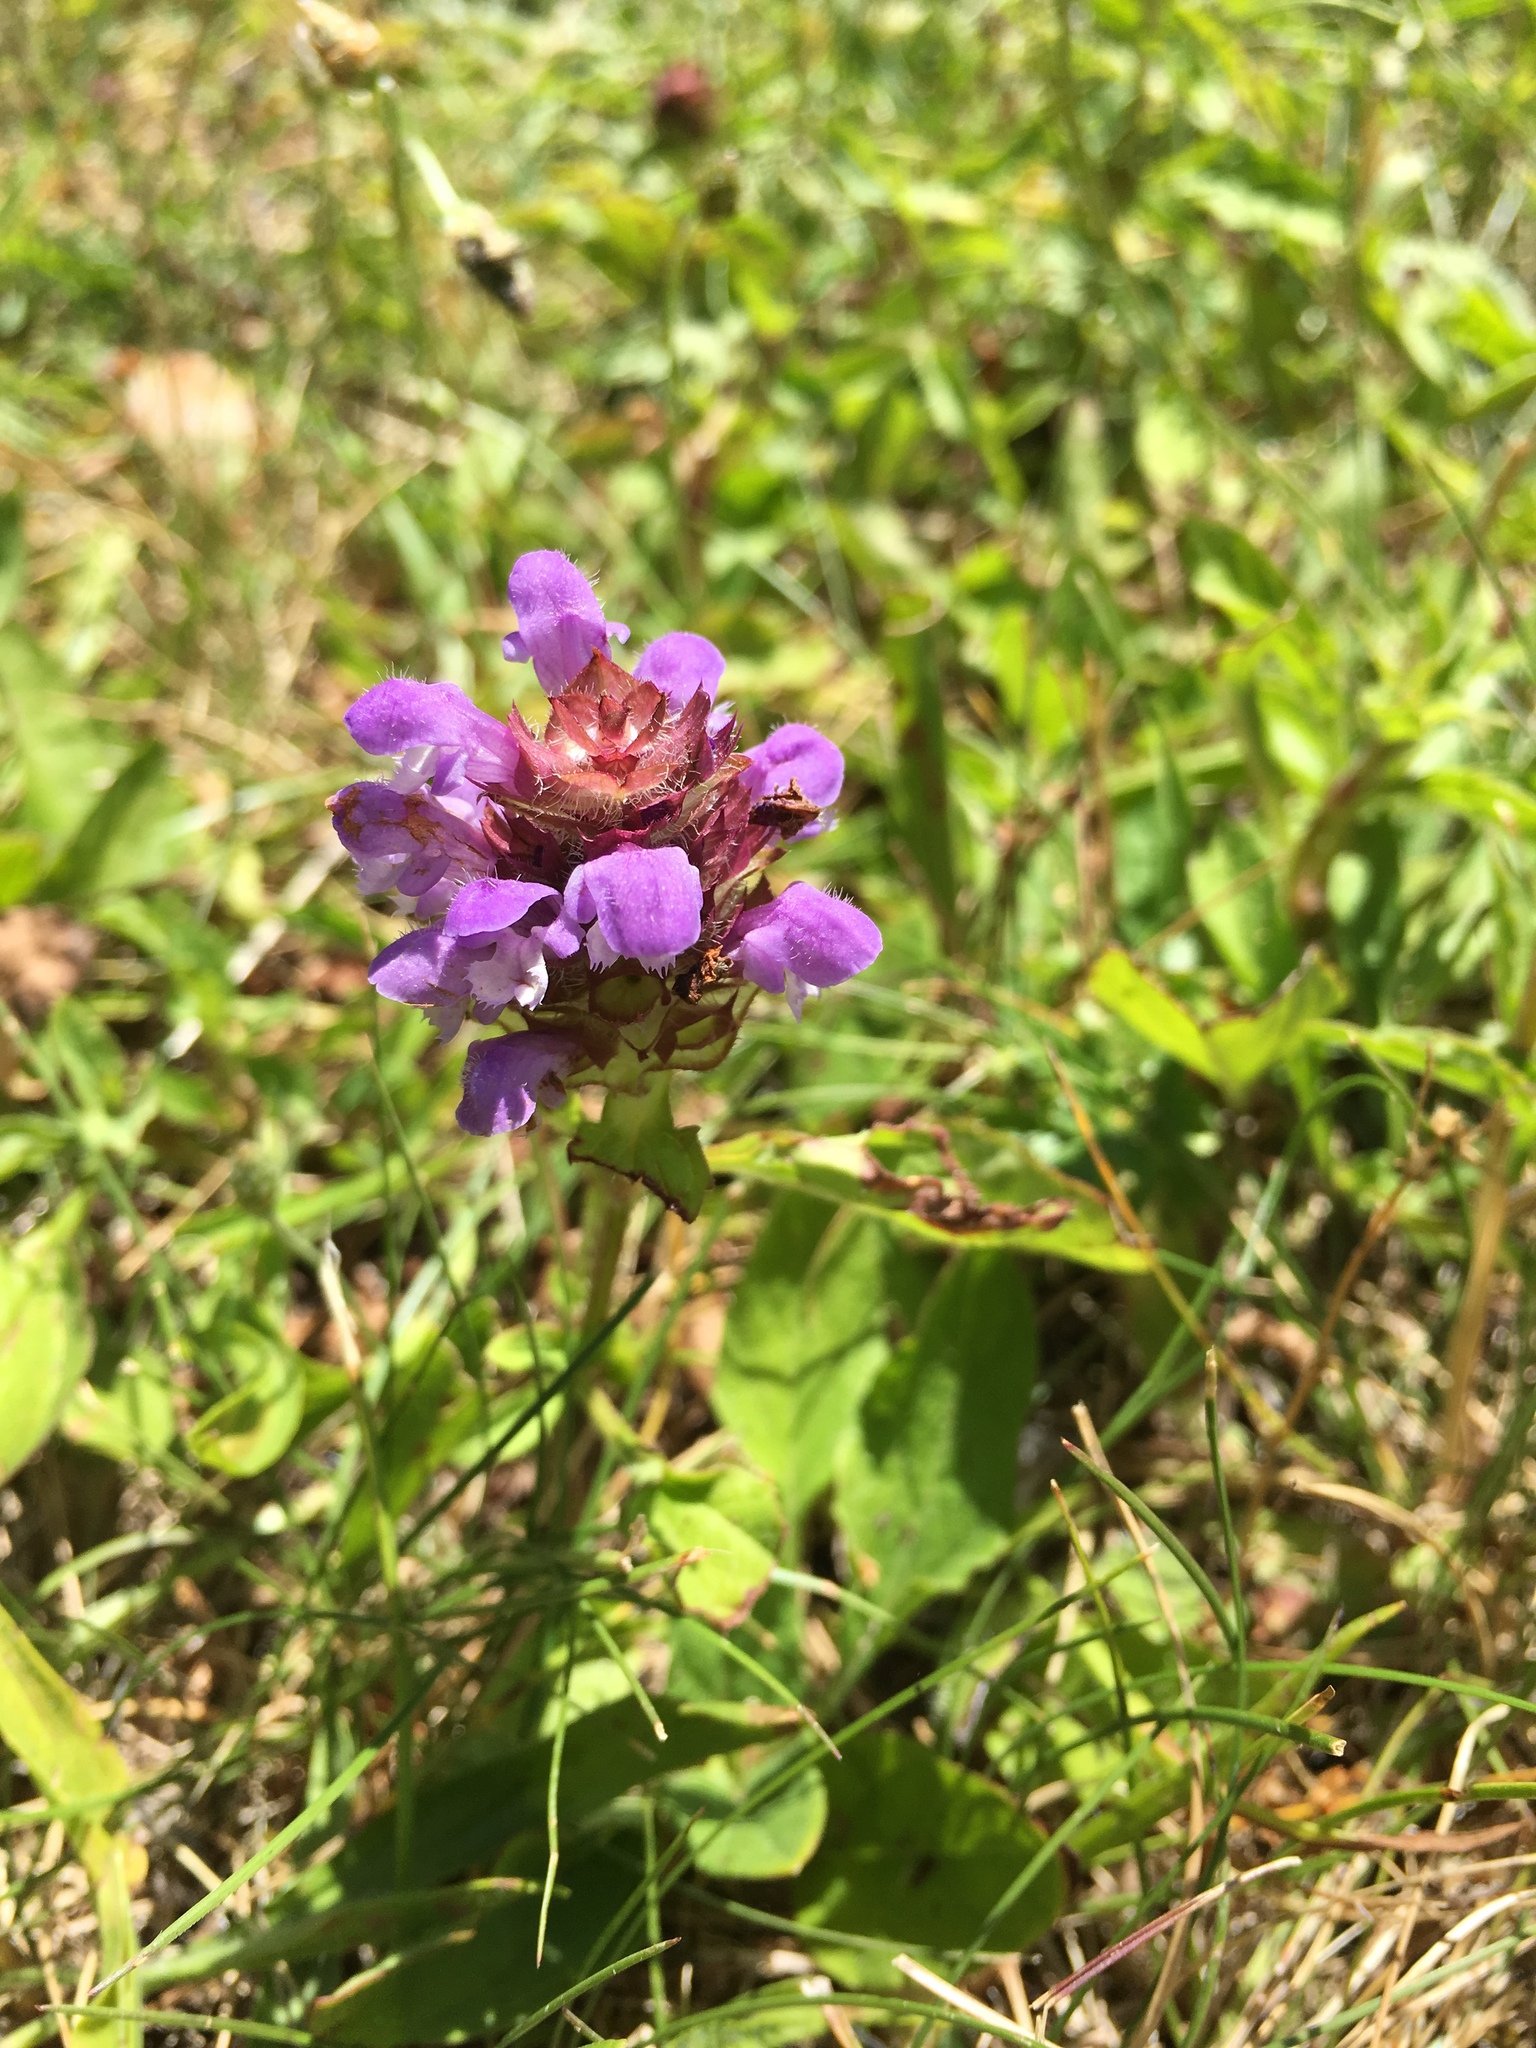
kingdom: Plantae
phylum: Tracheophyta
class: Magnoliopsida
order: Lamiales
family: Lamiaceae
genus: Prunella
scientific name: Prunella vulgaris
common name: Heal-all
